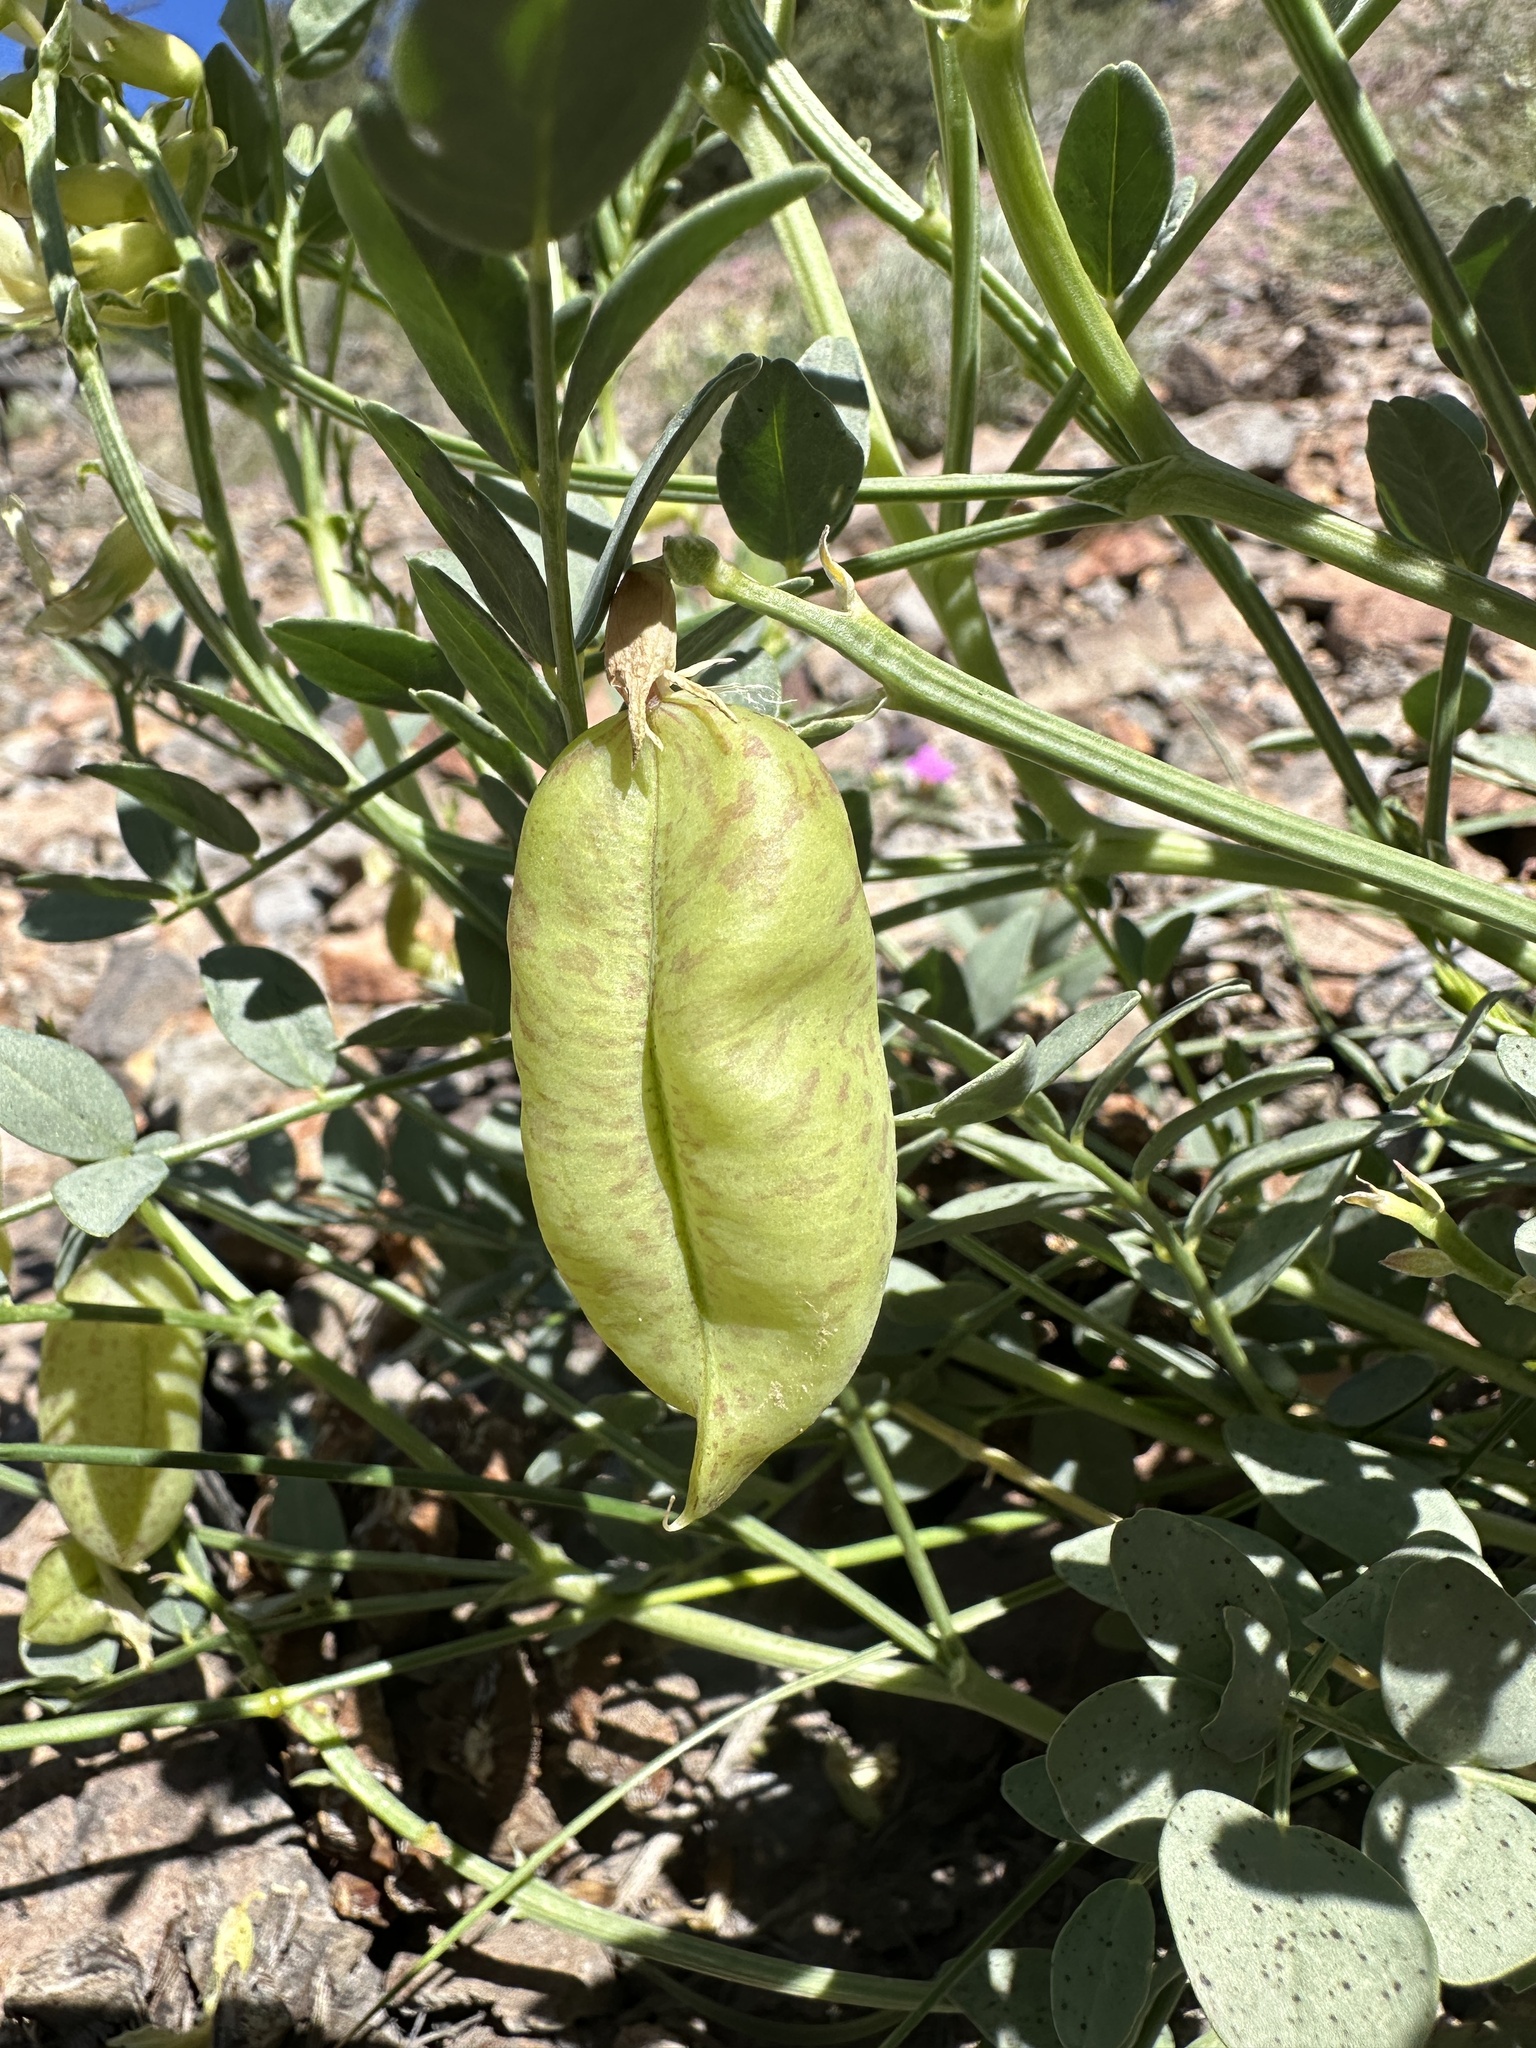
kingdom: Plantae
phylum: Tracheophyta
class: Magnoliopsida
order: Fabales
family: Fabaceae
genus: Astragalus
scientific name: Astragalus oophorus
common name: Egg milkvetch
